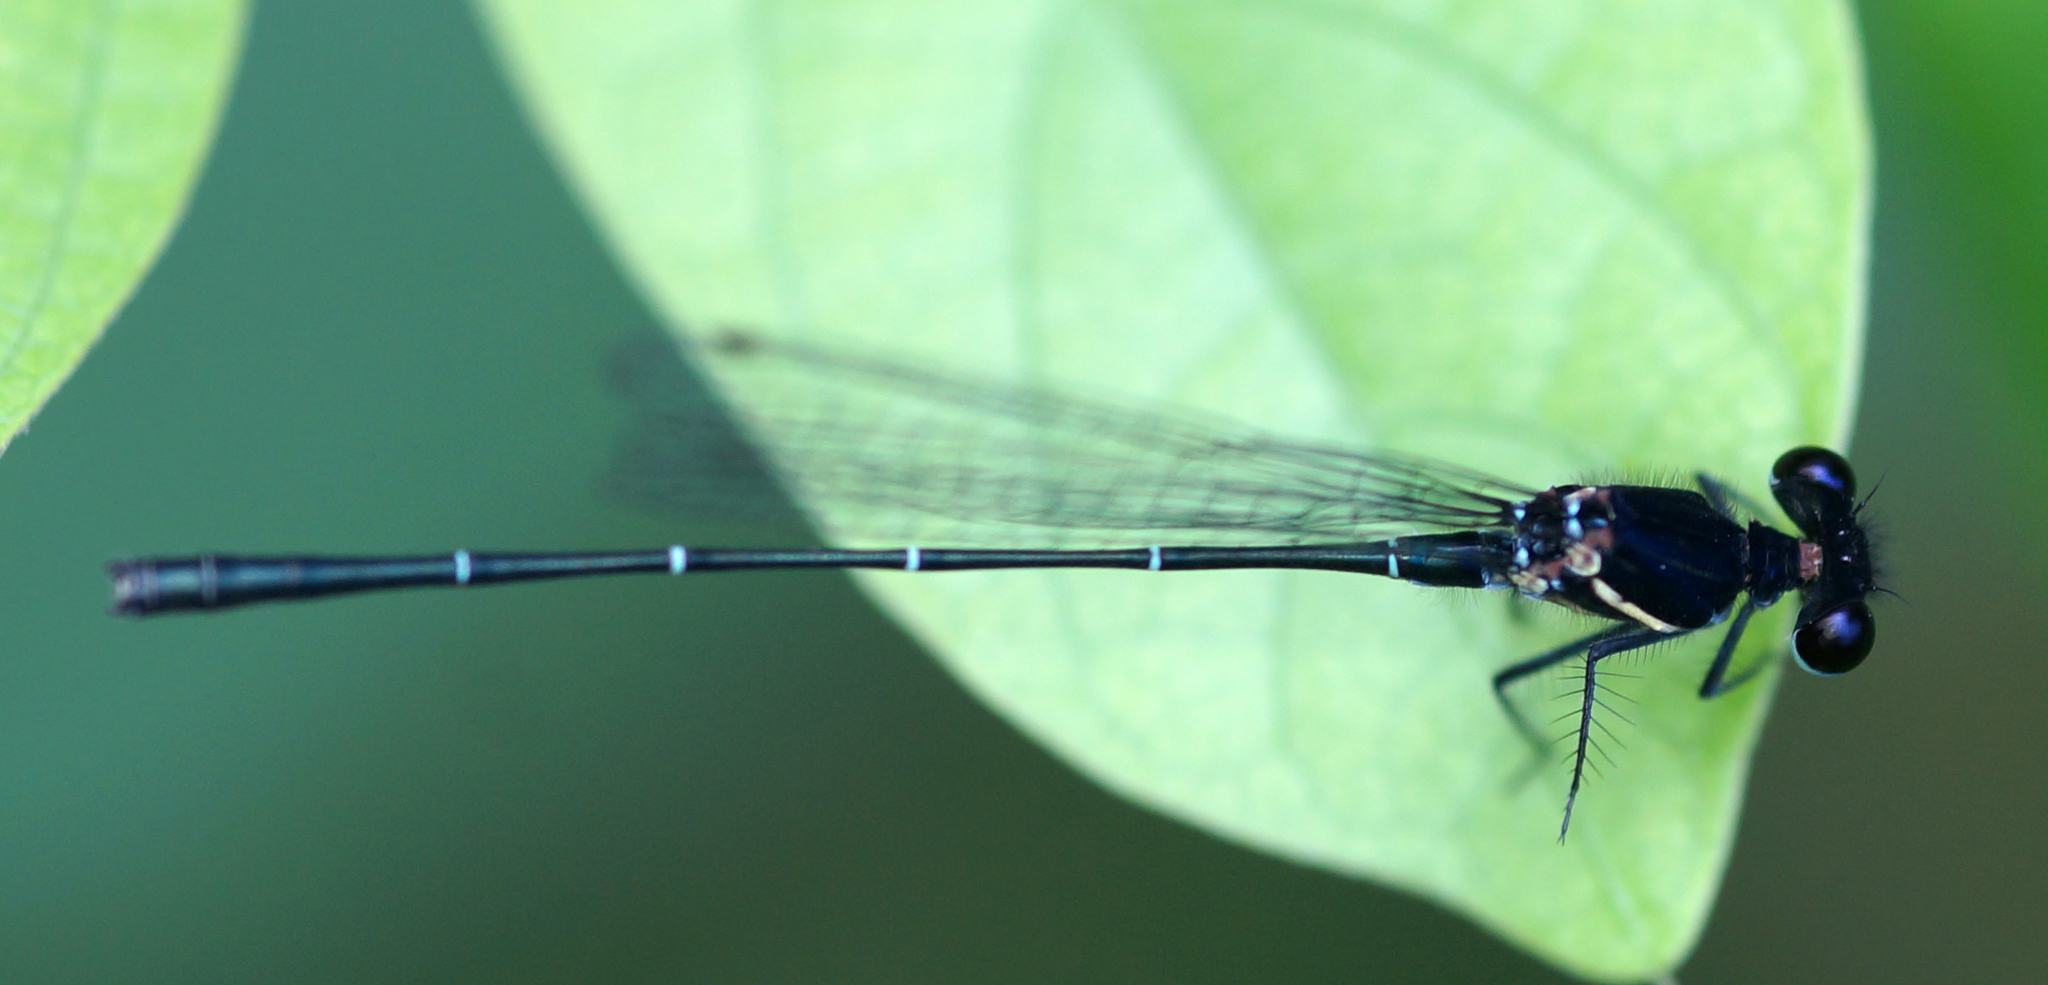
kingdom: Animalia
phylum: Arthropoda
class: Insecta
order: Odonata
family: Platycnemididae
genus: Onychargia
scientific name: Onychargia atrocyana
